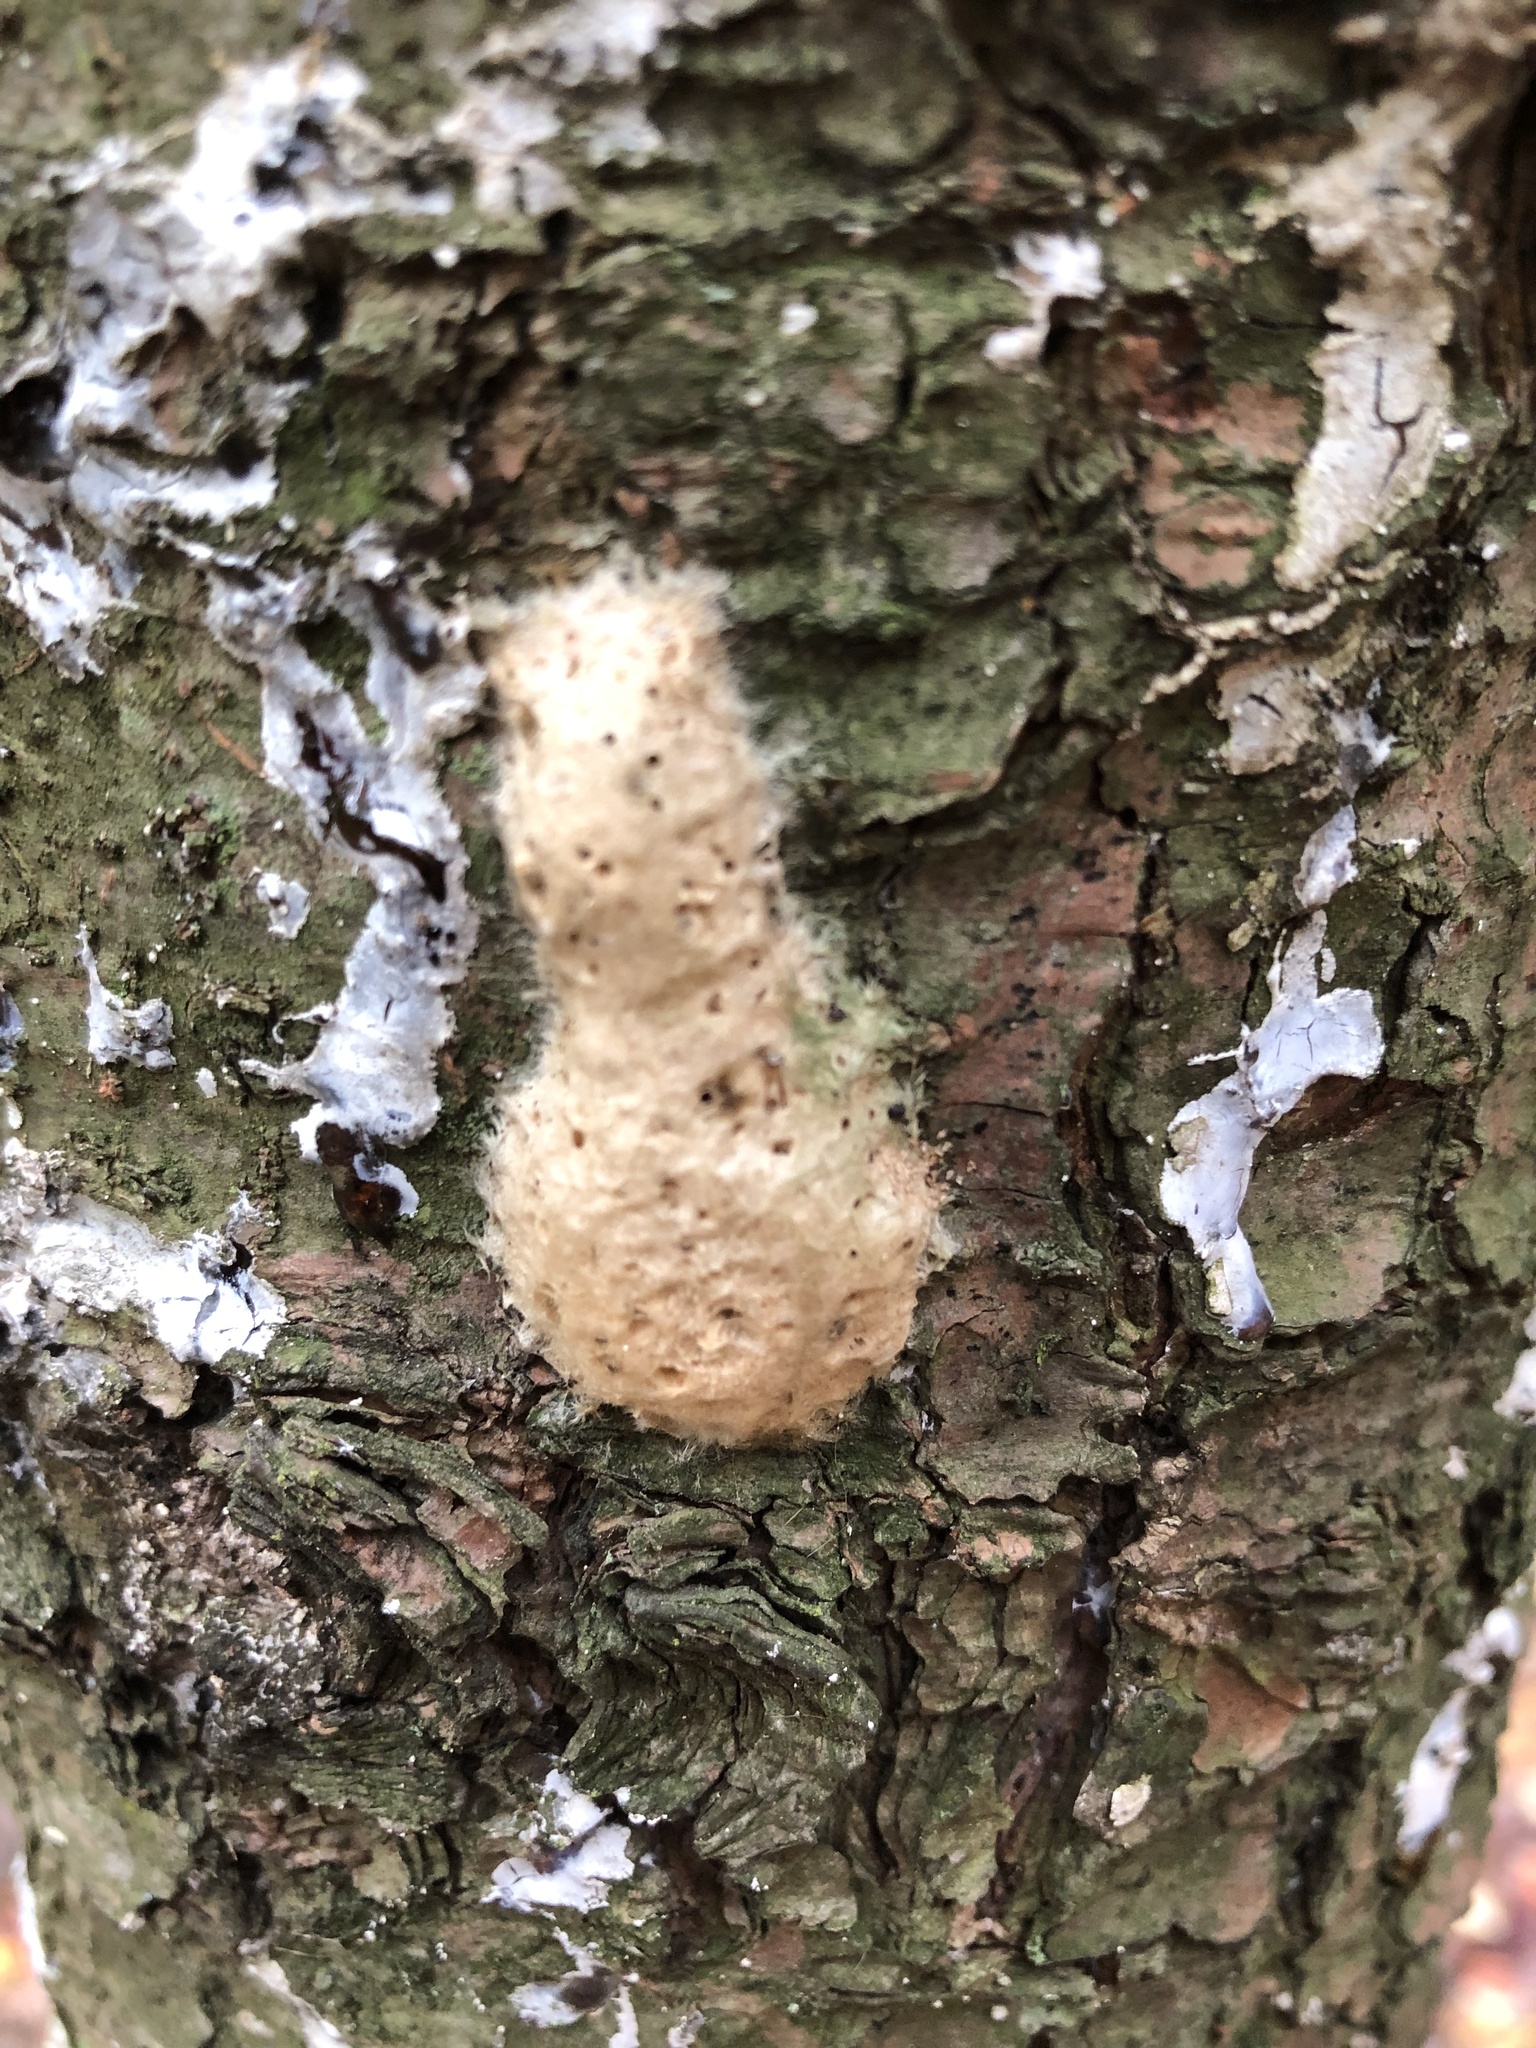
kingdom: Animalia
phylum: Arthropoda
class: Insecta
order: Lepidoptera
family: Erebidae
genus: Lymantria
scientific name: Lymantria dispar
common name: Gypsy moth
